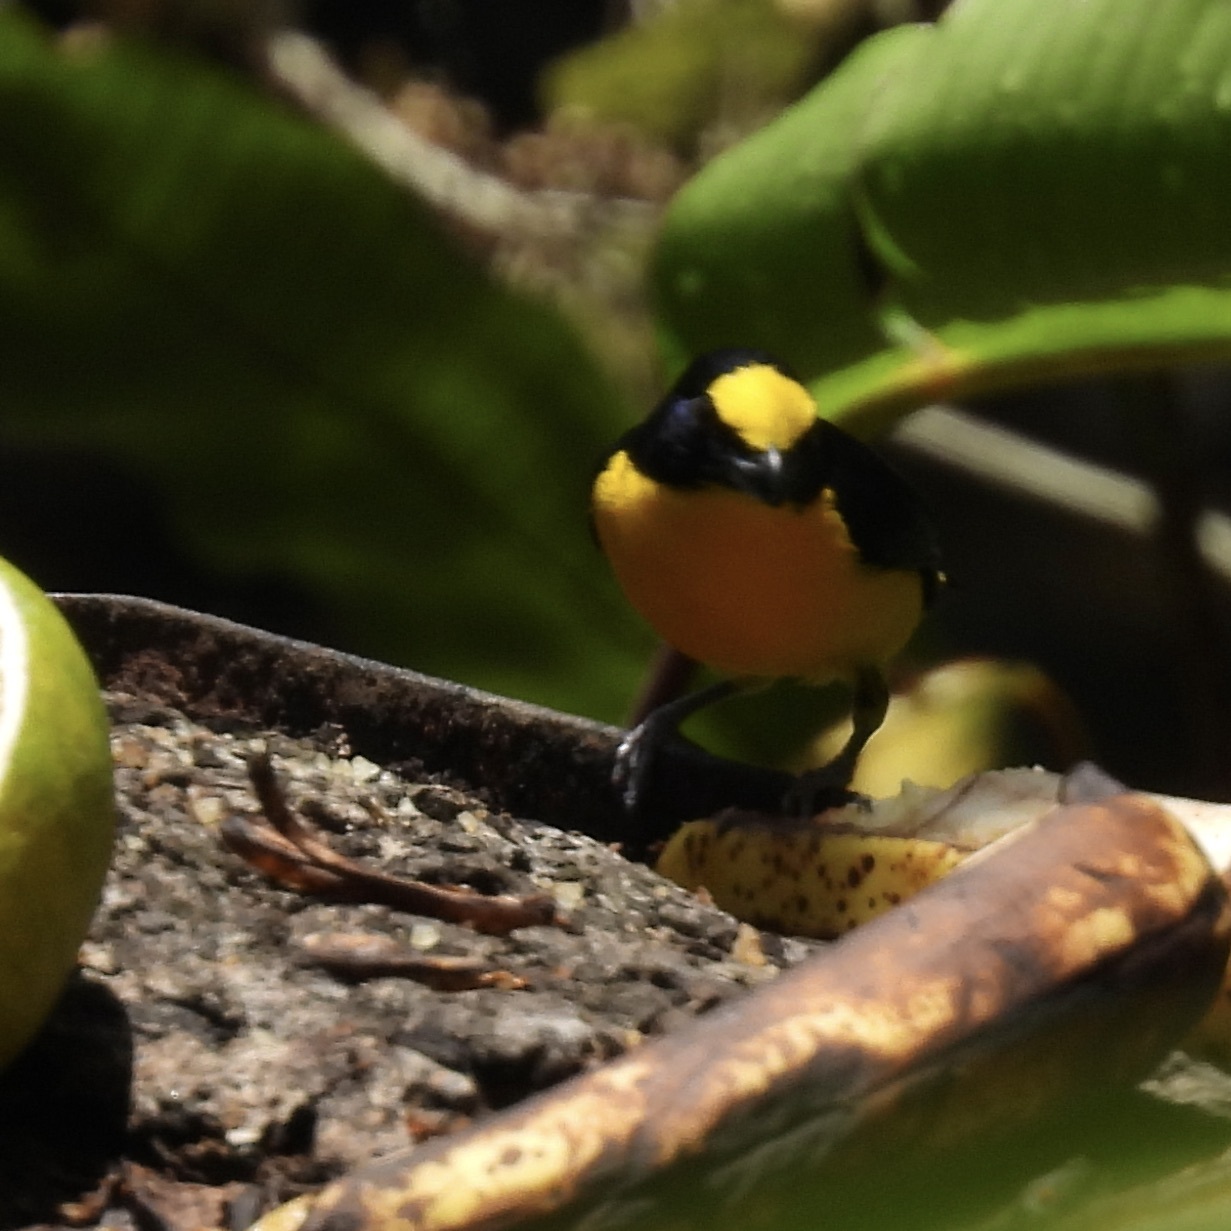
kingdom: Animalia
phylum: Chordata
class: Aves
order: Passeriformes
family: Fringillidae
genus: Euphonia
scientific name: Euphonia laniirostris
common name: Thick-billed euphonia
